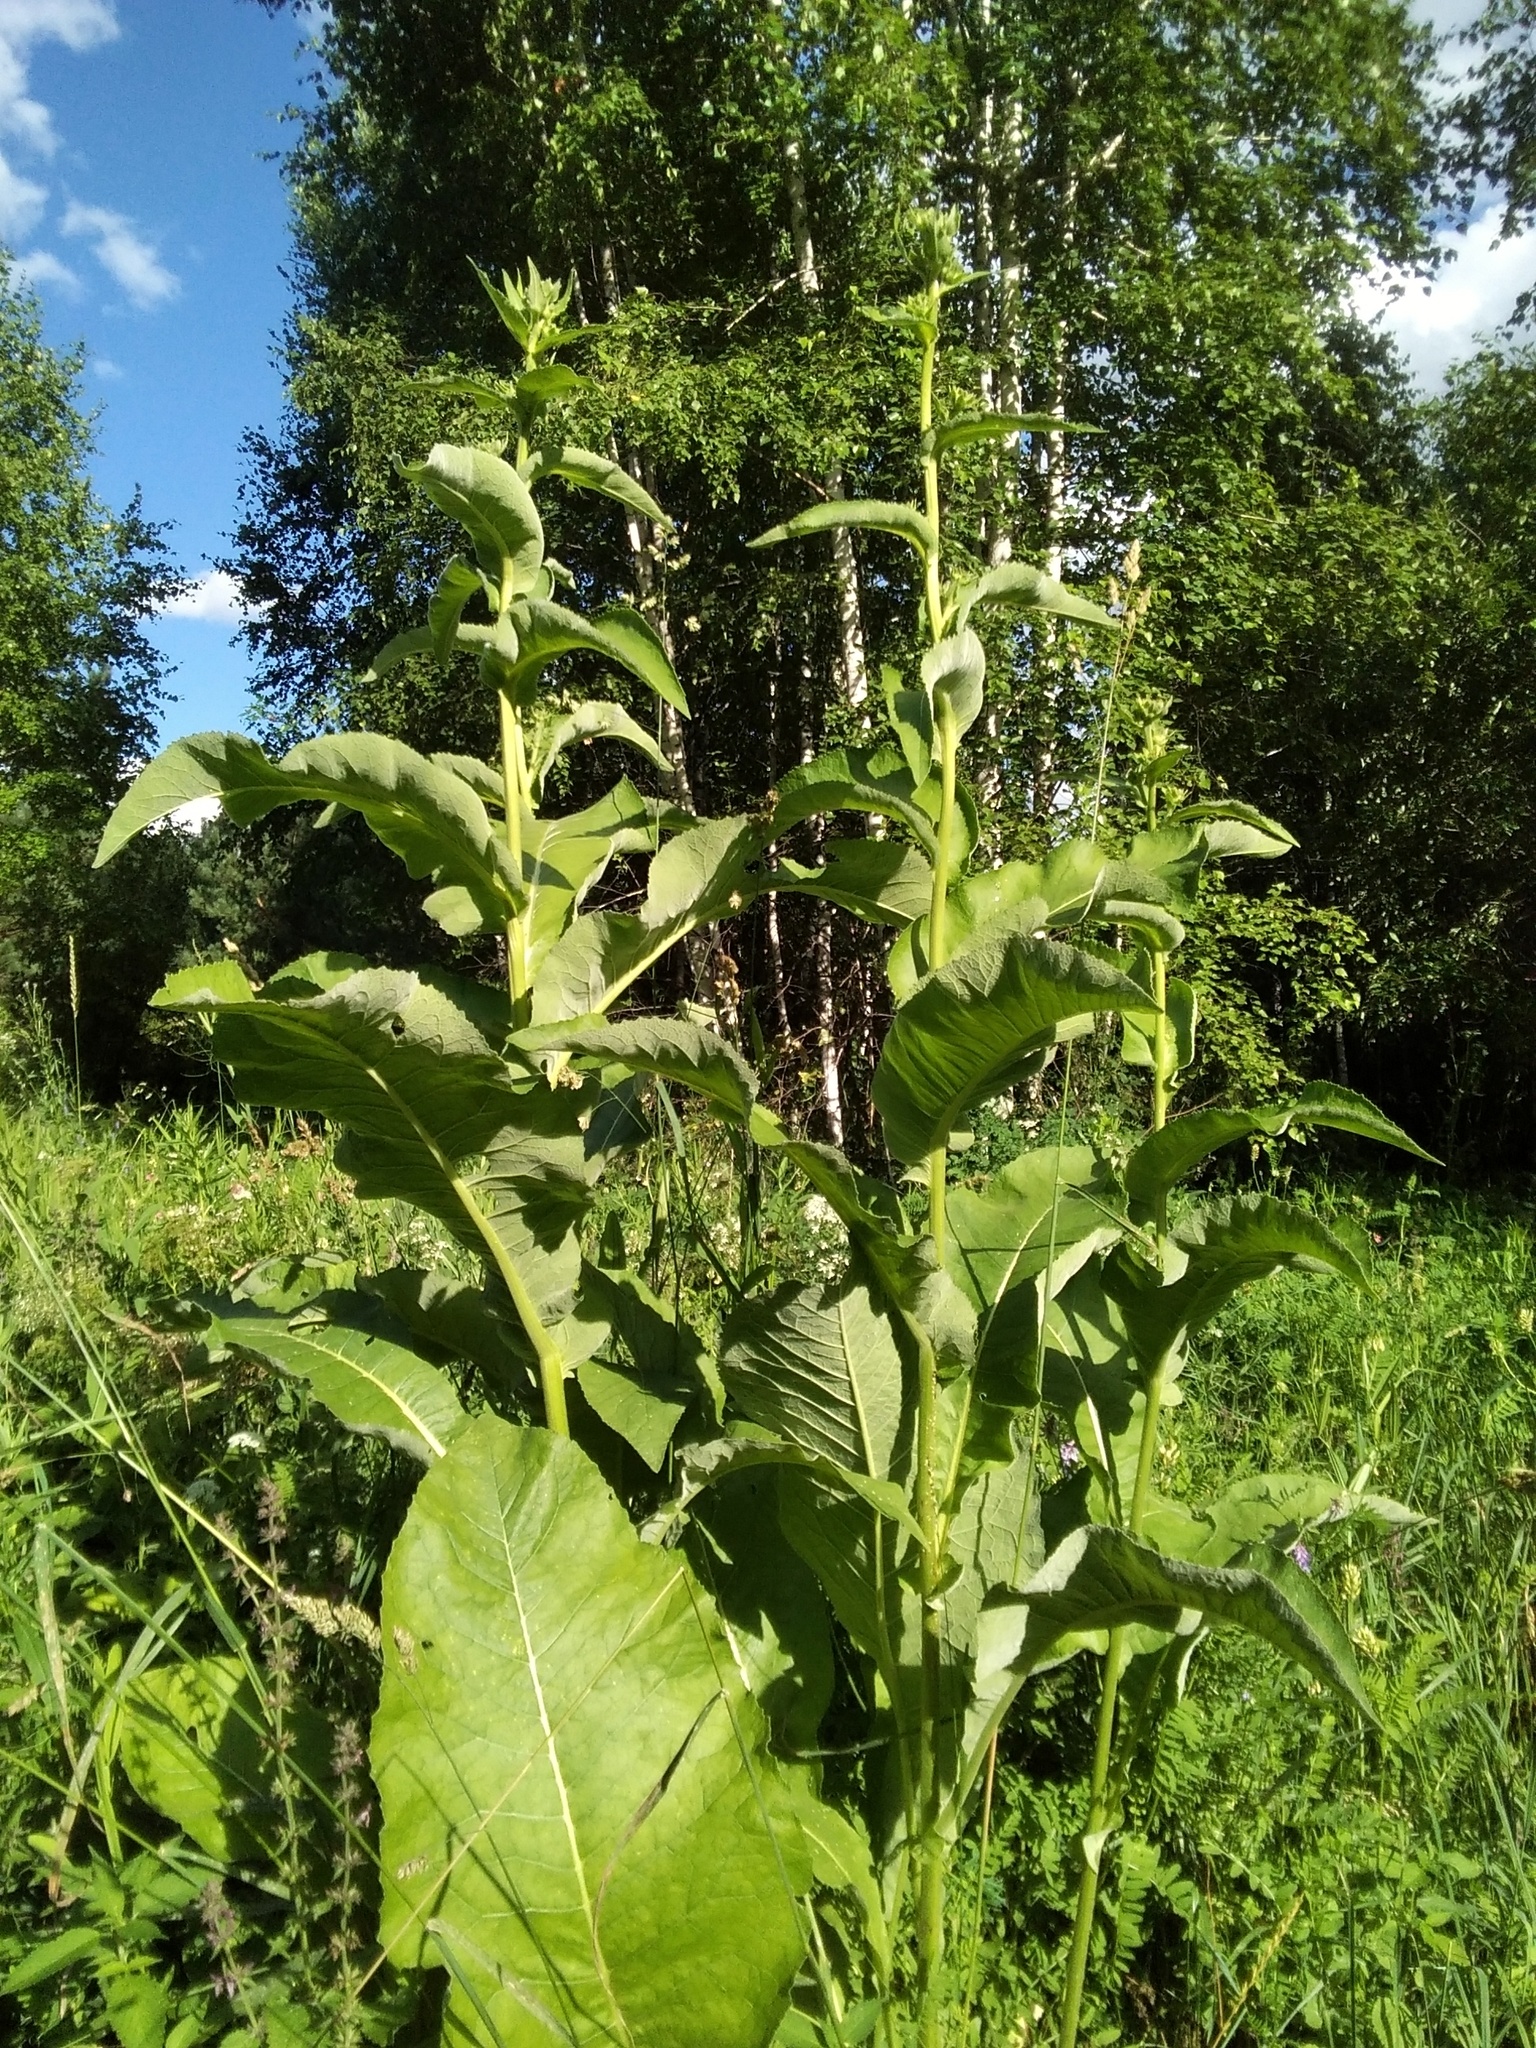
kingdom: Plantae
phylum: Tracheophyta
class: Magnoliopsida
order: Asterales
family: Asteraceae
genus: Inula
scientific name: Inula helenium
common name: Elecampane
